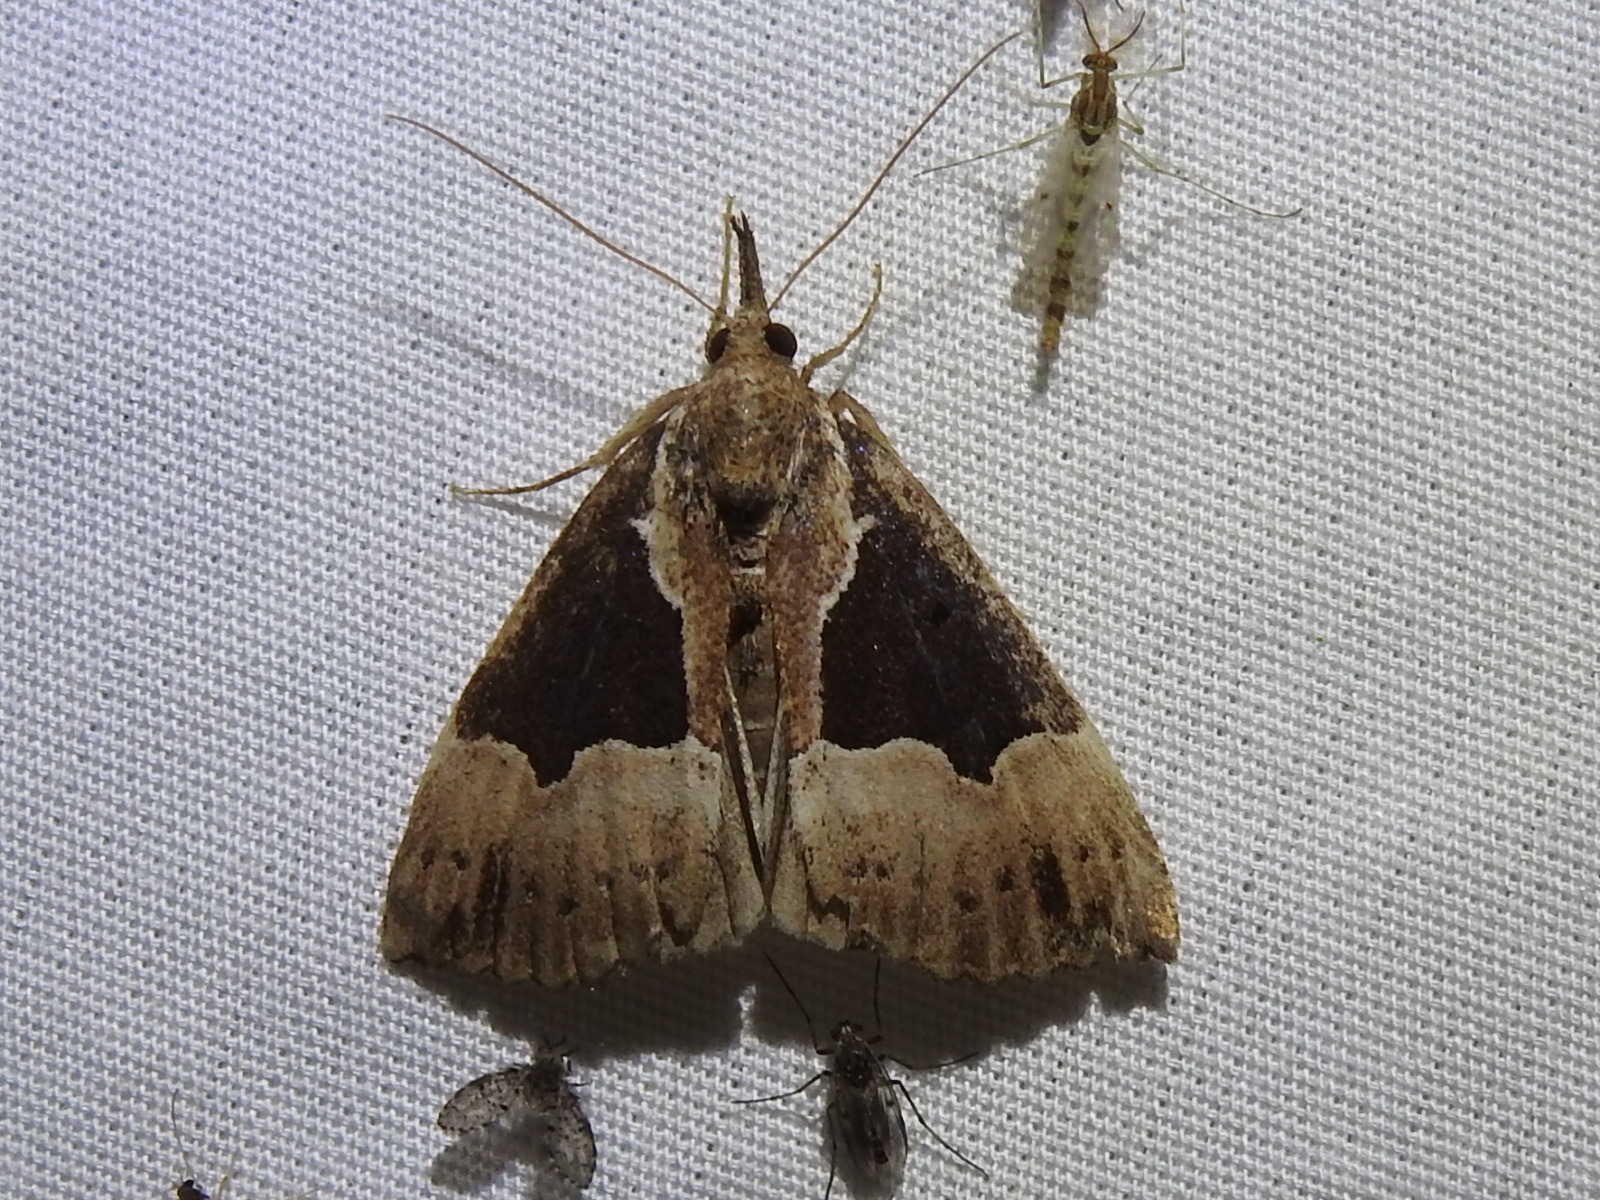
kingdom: Animalia
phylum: Arthropoda
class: Insecta
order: Lepidoptera
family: Erebidae
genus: Hypena
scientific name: Hypena bijugalis
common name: Dimorphic bomolocha moth
